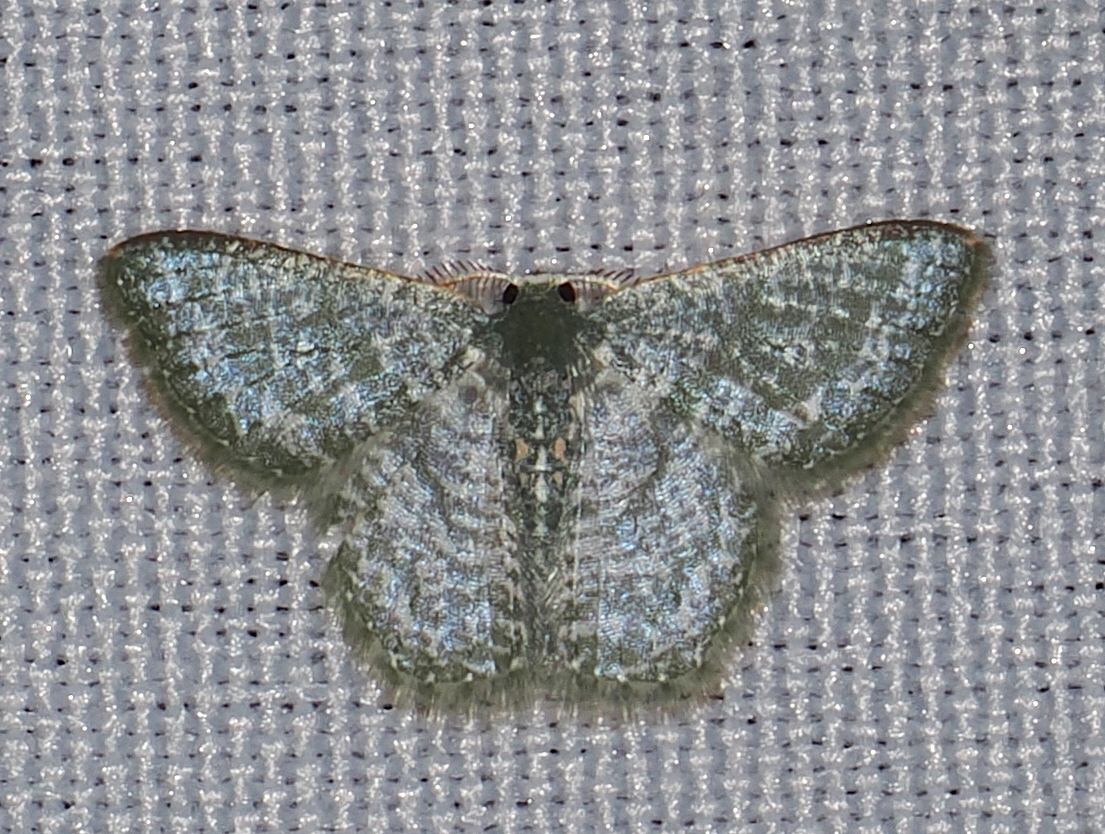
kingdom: Animalia
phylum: Arthropoda
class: Insecta
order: Lepidoptera
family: Geometridae
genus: Chloropteryx
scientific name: Chloropteryx opalaria
